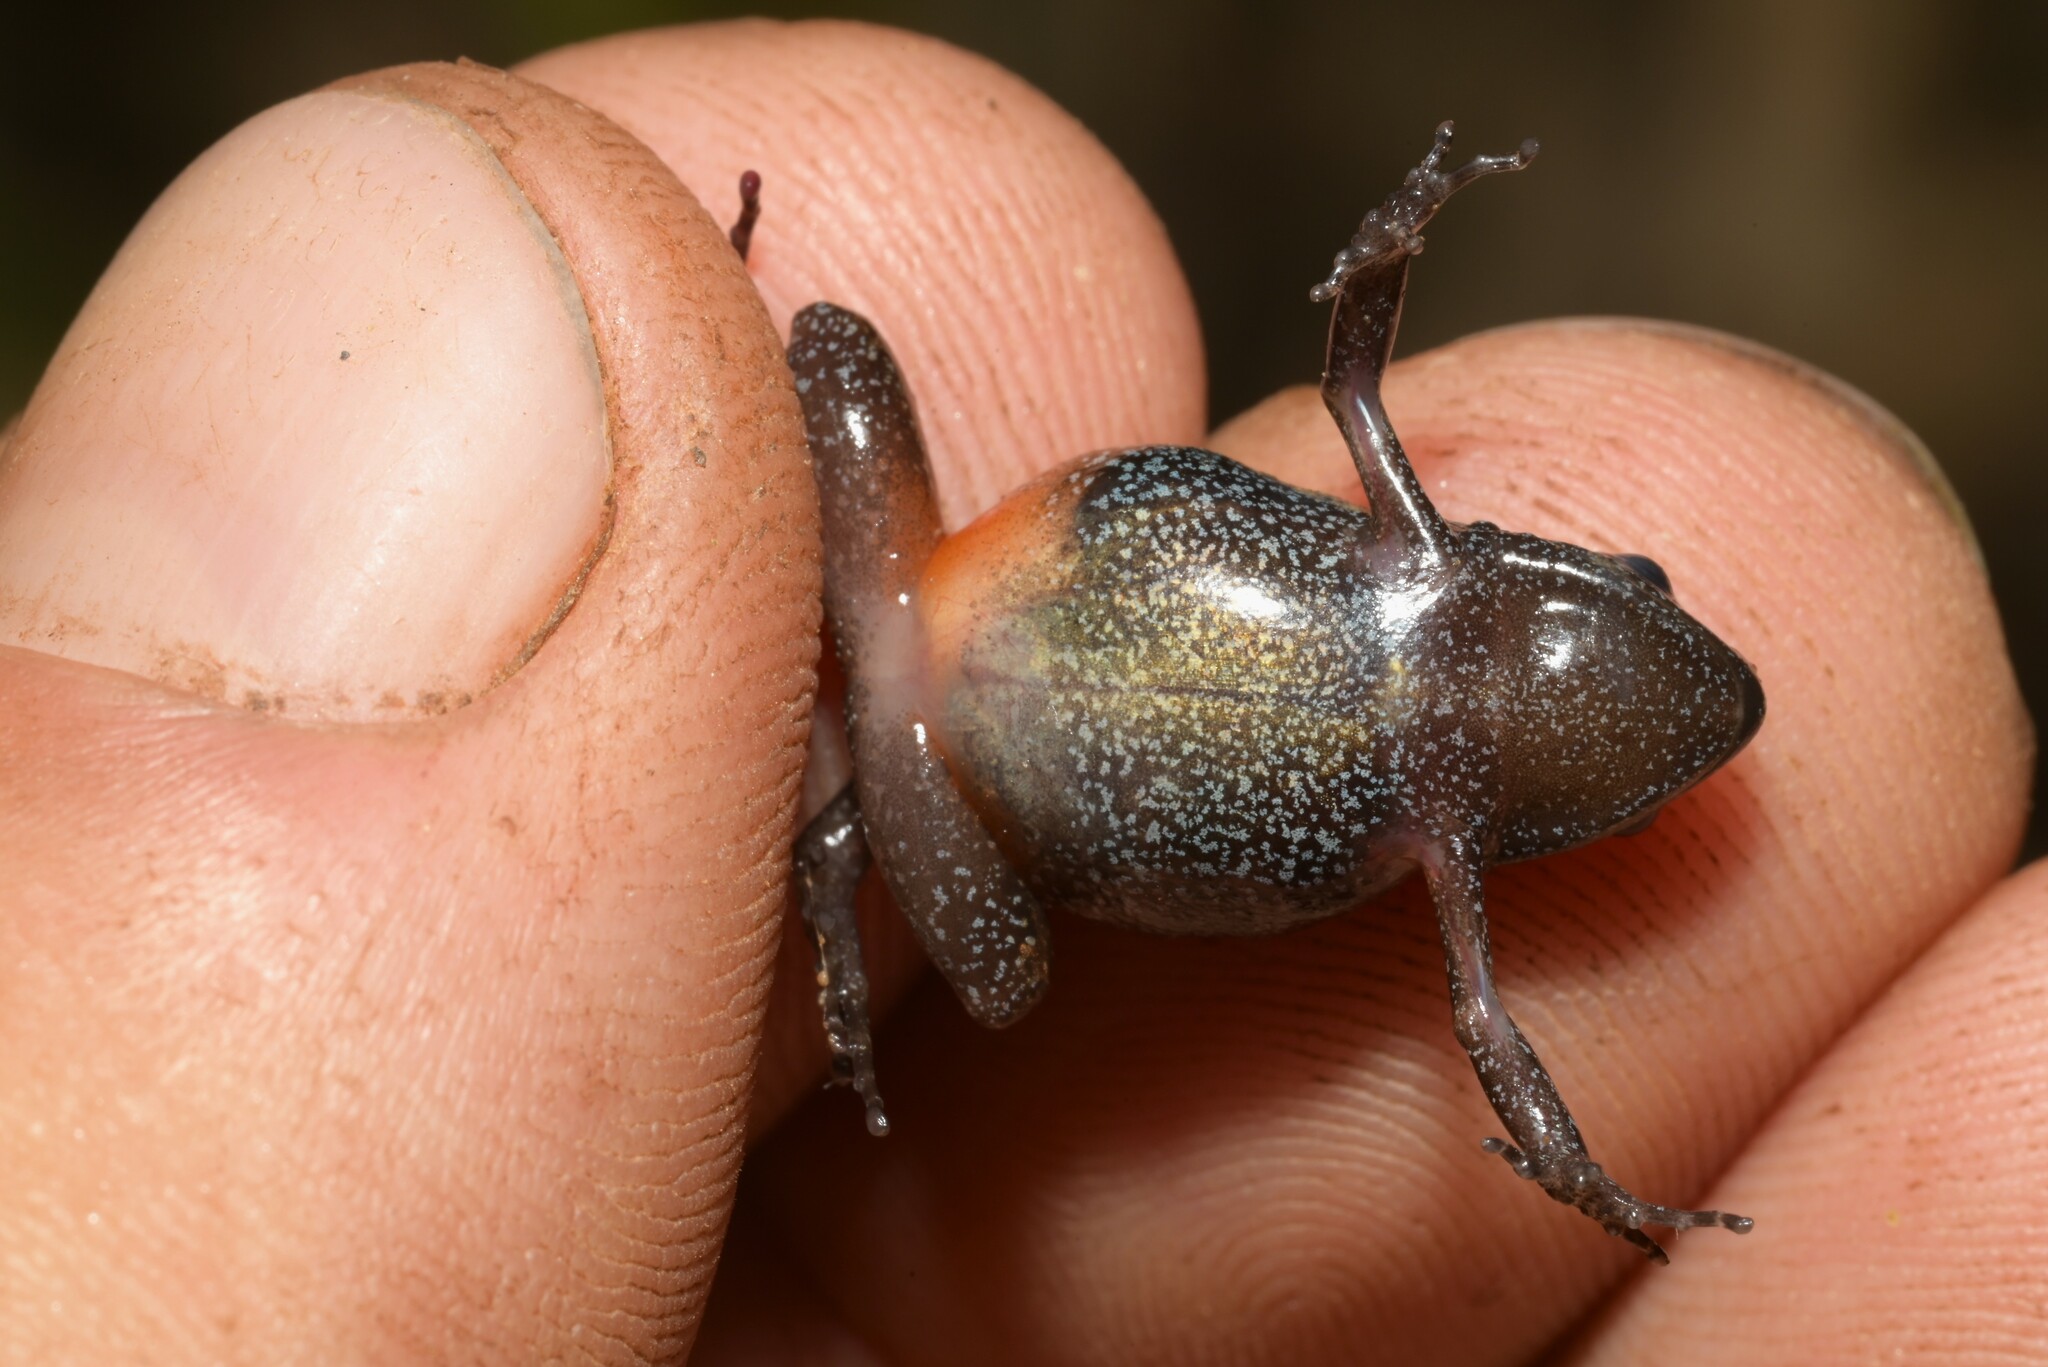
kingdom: Animalia
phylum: Chordata
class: Amphibia
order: Anura
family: Arthroleptidae
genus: Arthroleptis
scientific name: Arthroleptis xenodactyloides
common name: Chirinda screeching frog
